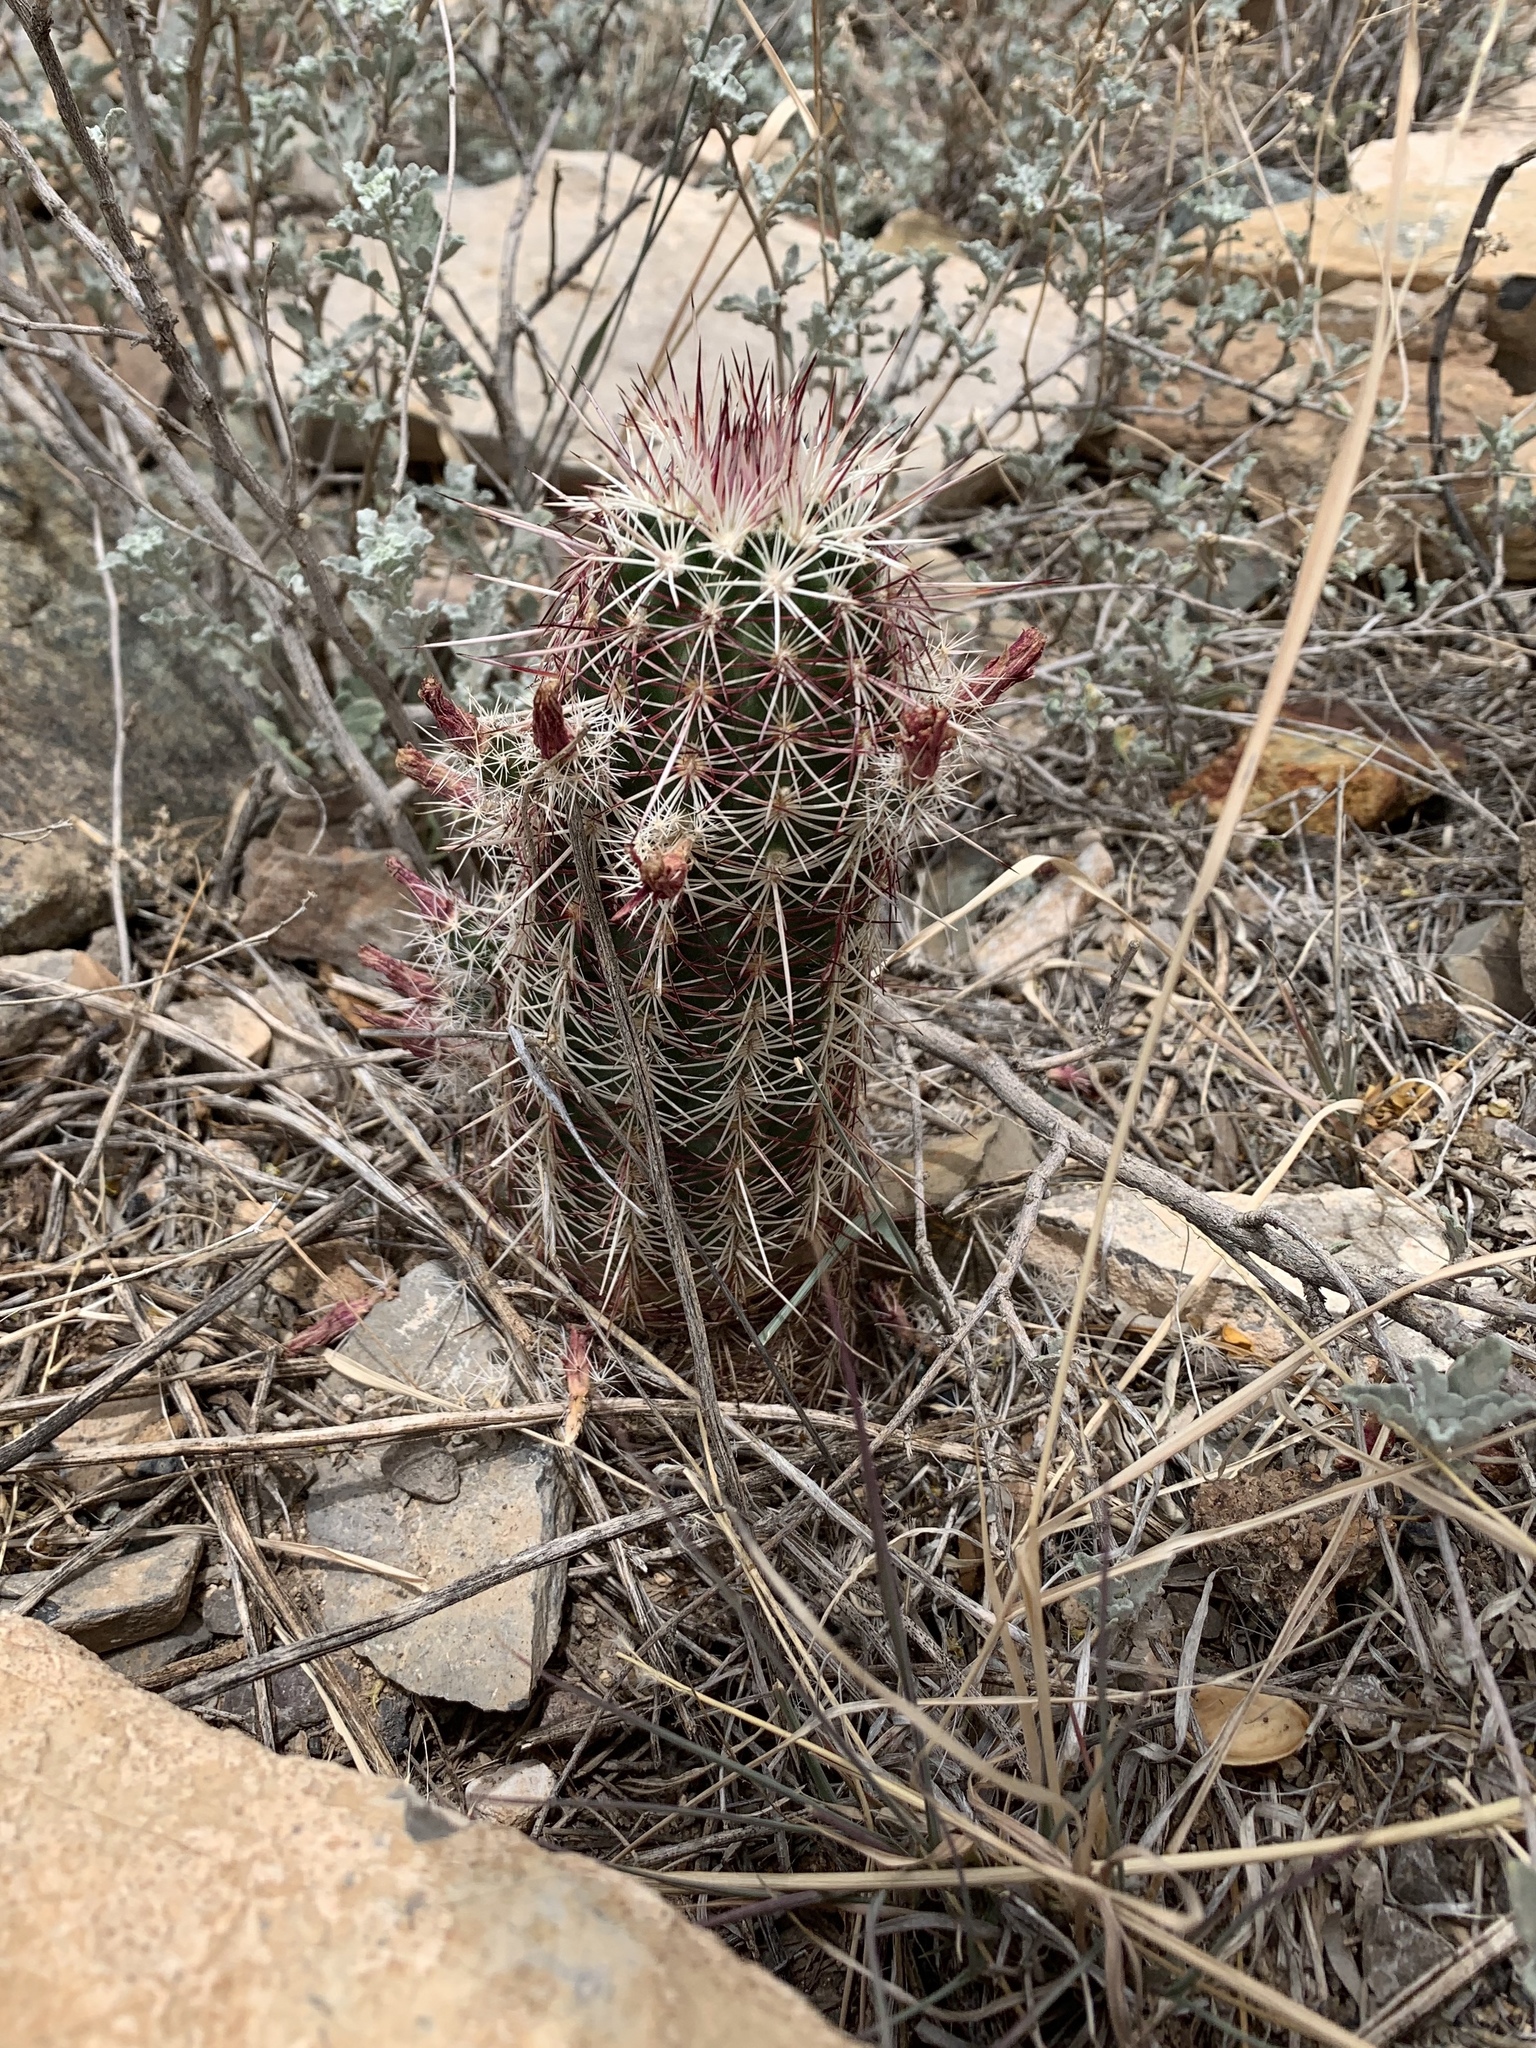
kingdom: Plantae
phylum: Tracheophyta
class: Magnoliopsida
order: Caryophyllales
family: Cactaceae
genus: Echinocereus
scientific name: Echinocereus viridiflorus
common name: Nylon hedgehog cactus
